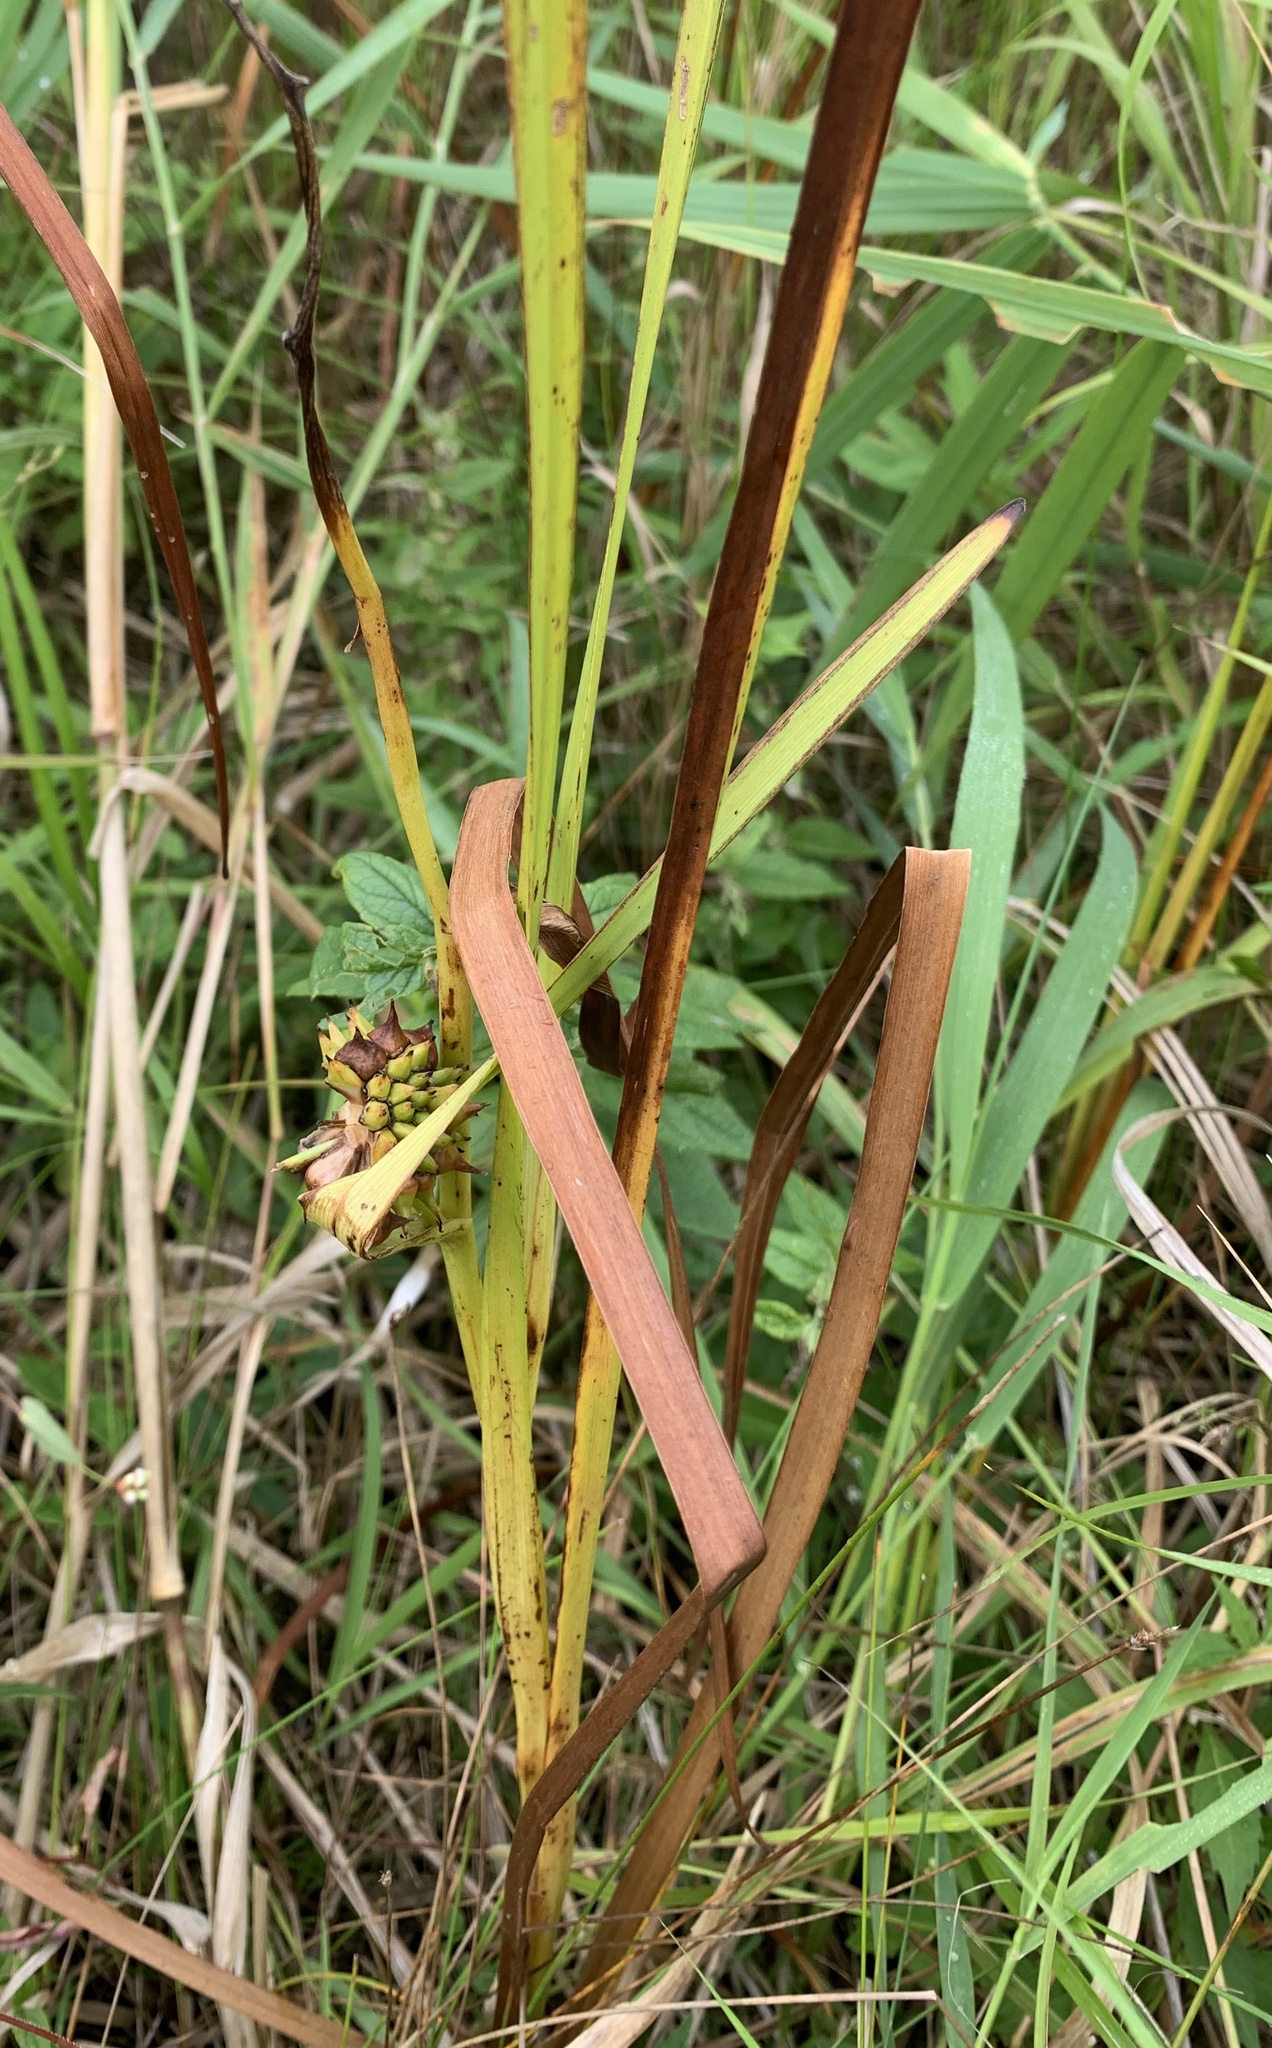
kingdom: Plantae
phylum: Tracheophyta
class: Liliopsida
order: Poales
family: Typhaceae
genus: Sparganium
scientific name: Sparganium eurycarpum
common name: Broad-fruited burreed
